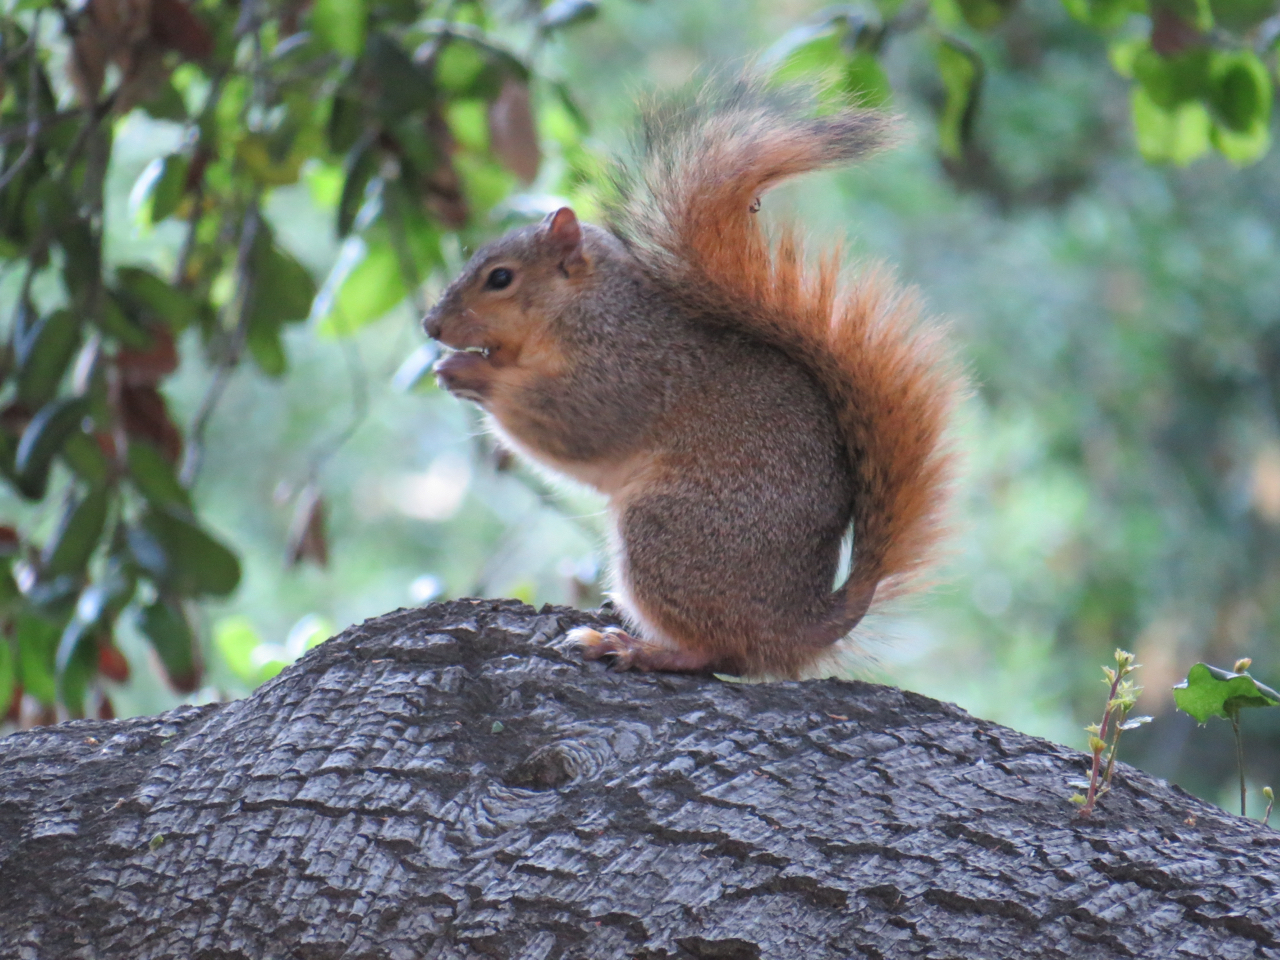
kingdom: Animalia
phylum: Chordata
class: Mammalia
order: Rodentia
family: Sciuridae
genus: Sciurus
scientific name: Sciurus niger
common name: Fox squirrel
